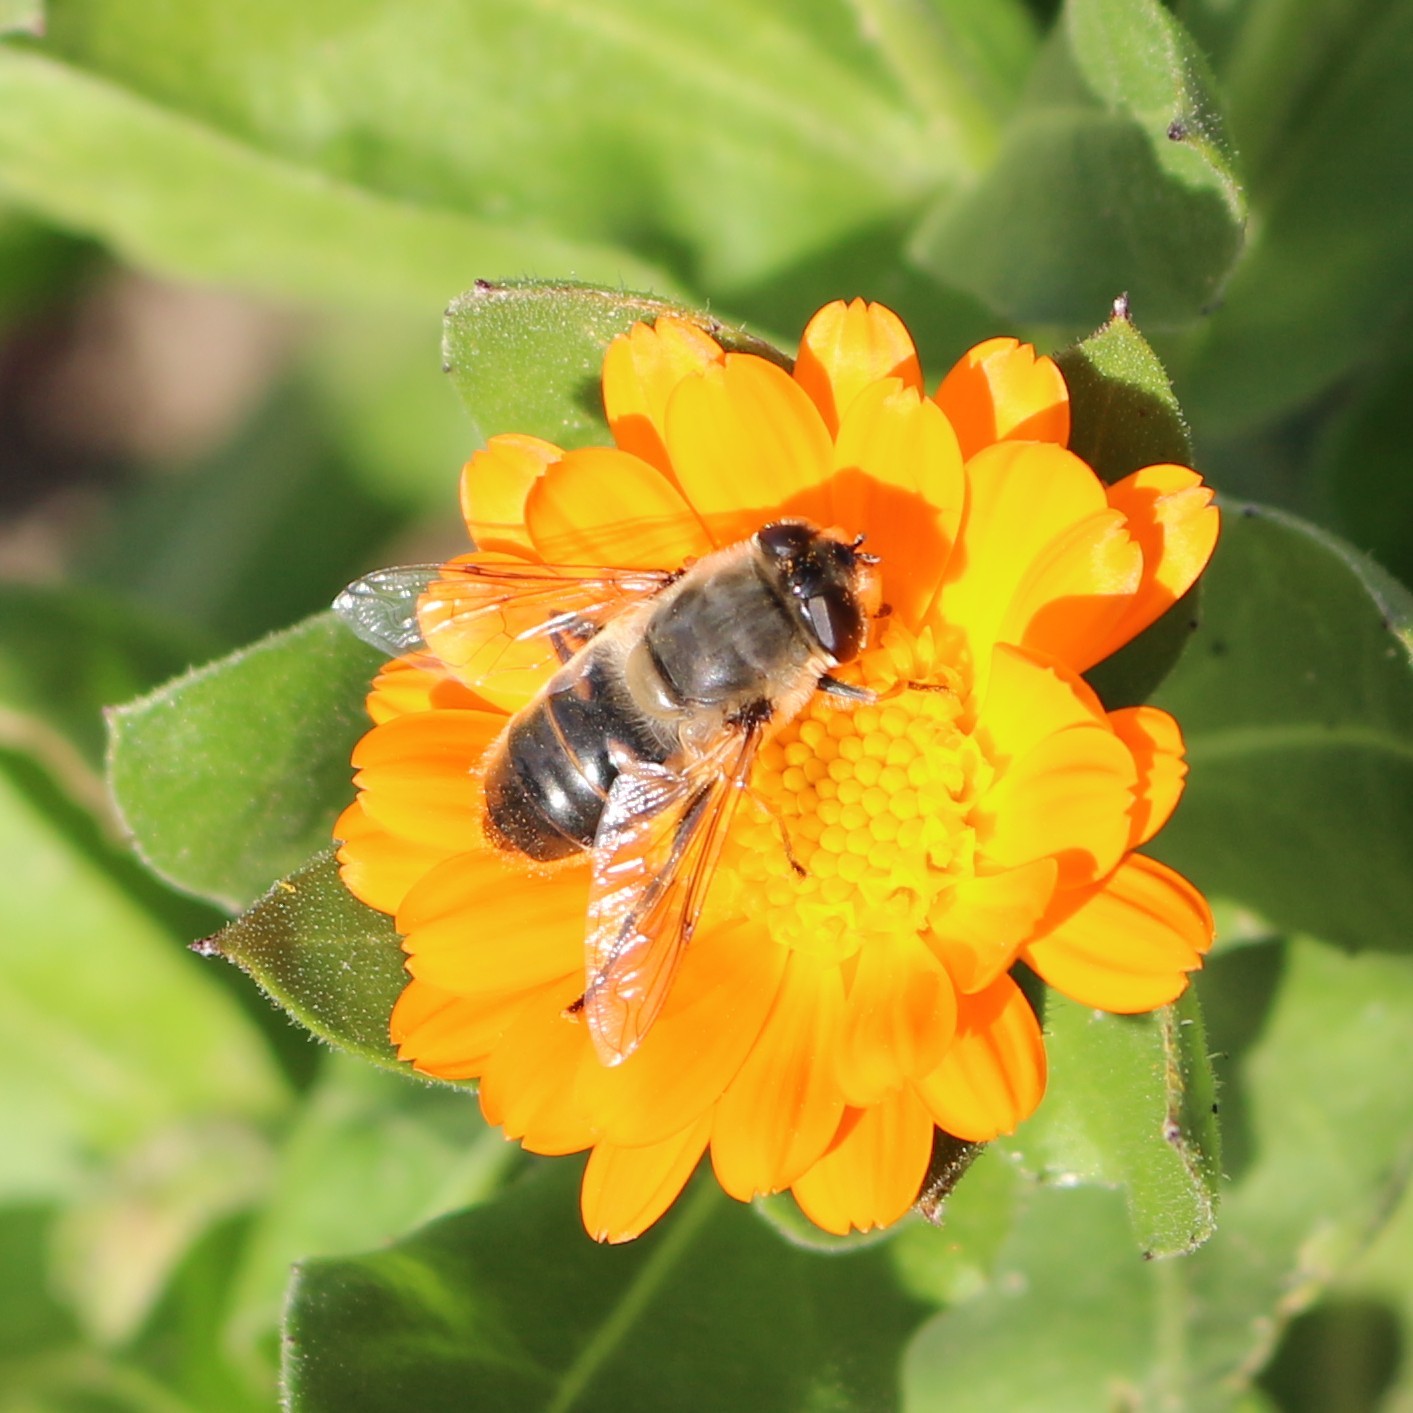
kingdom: Animalia
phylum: Arthropoda
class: Insecta
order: Diptera
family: Syrphidae
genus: Eristalis
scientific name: Eristalis tenax
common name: Drone fly
